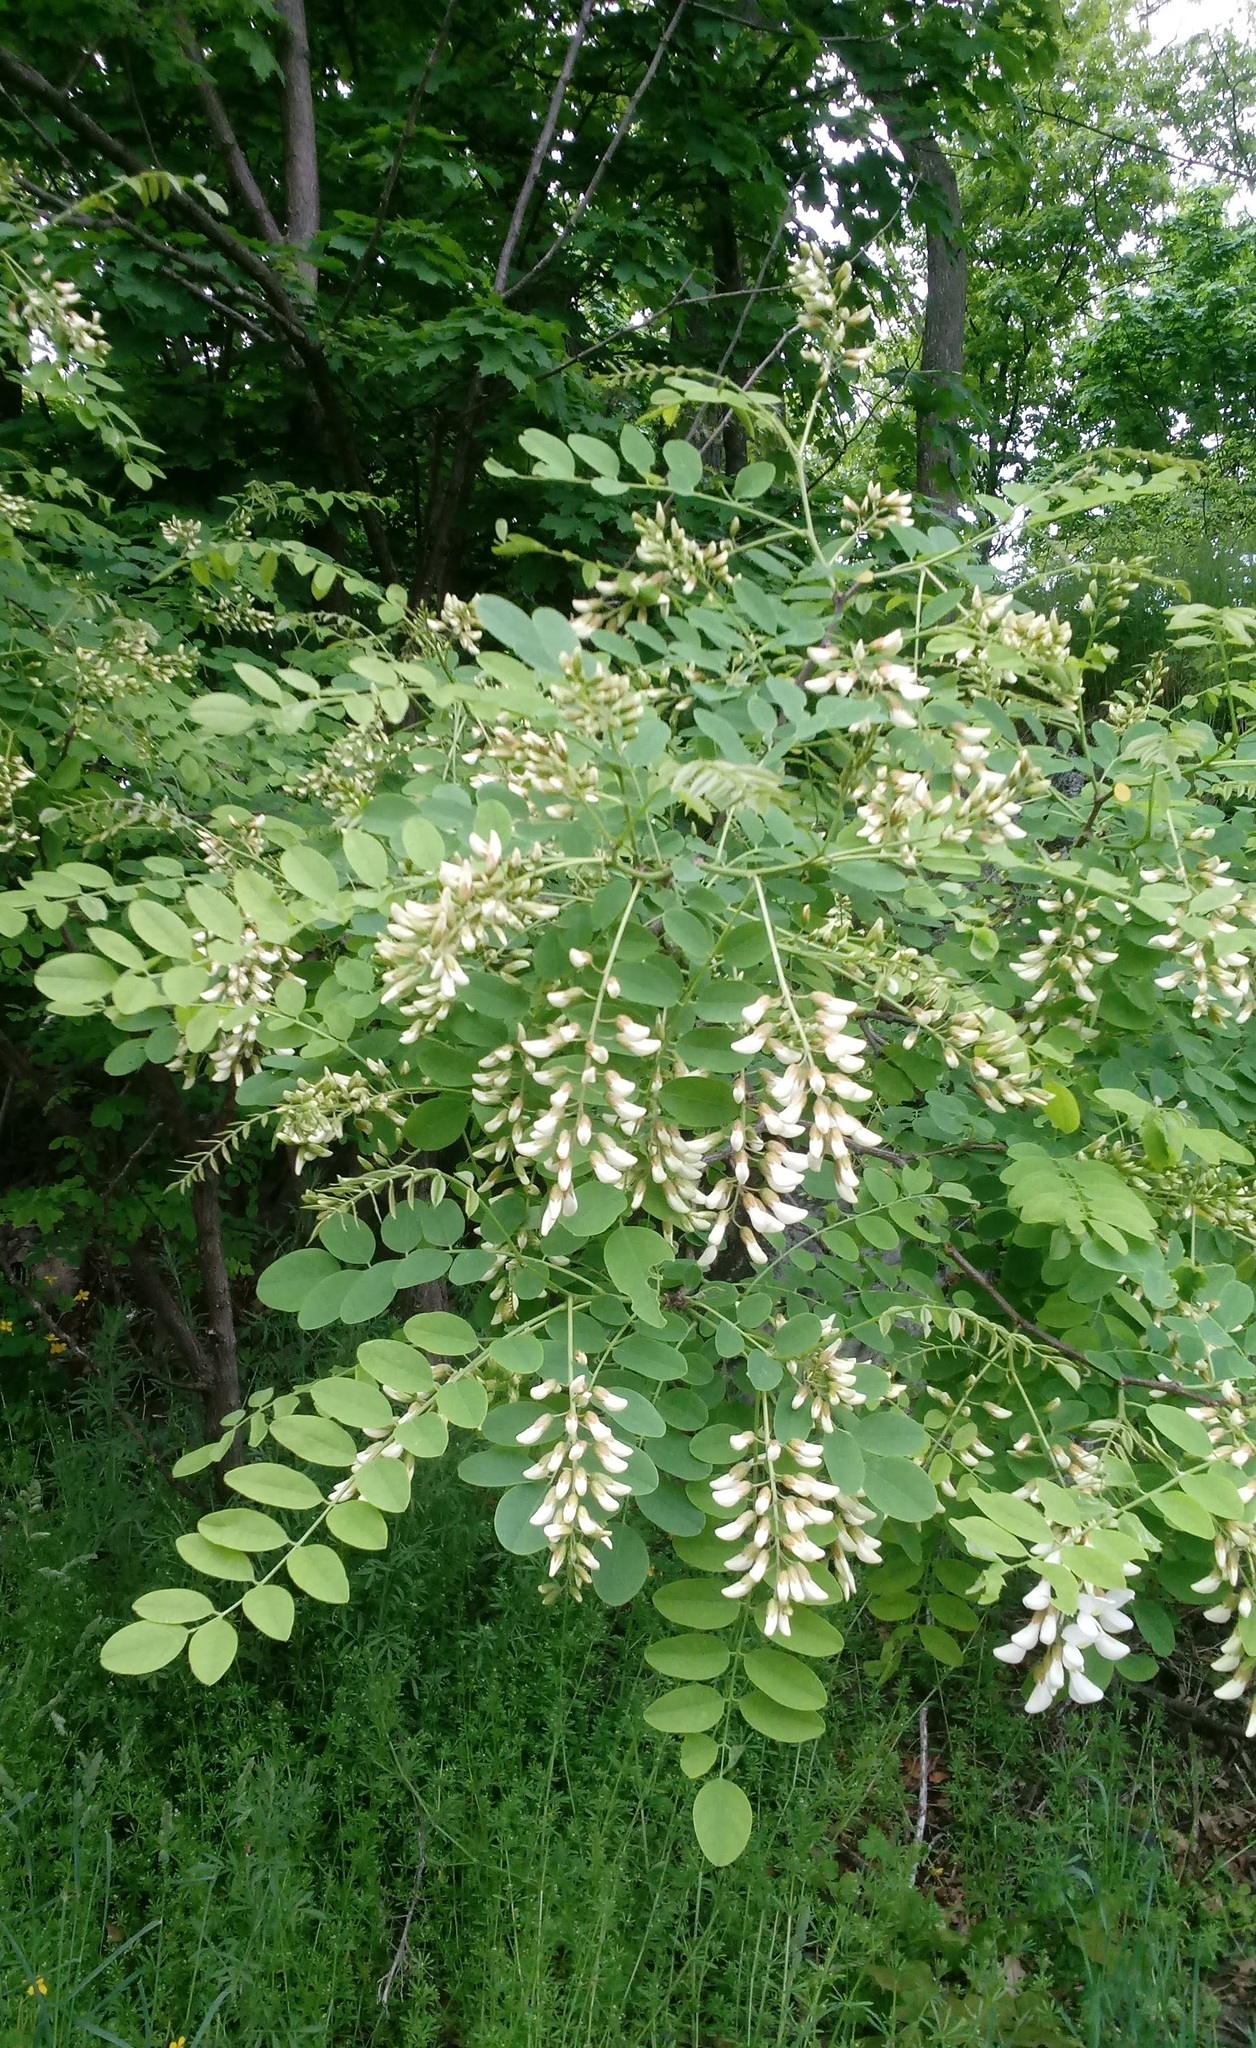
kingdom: Plantae
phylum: Tracheophyta
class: Magnoliopsida
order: Fabales
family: Fabaceae
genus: Robinia
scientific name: Robinia pseudoacacia
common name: Black locust
